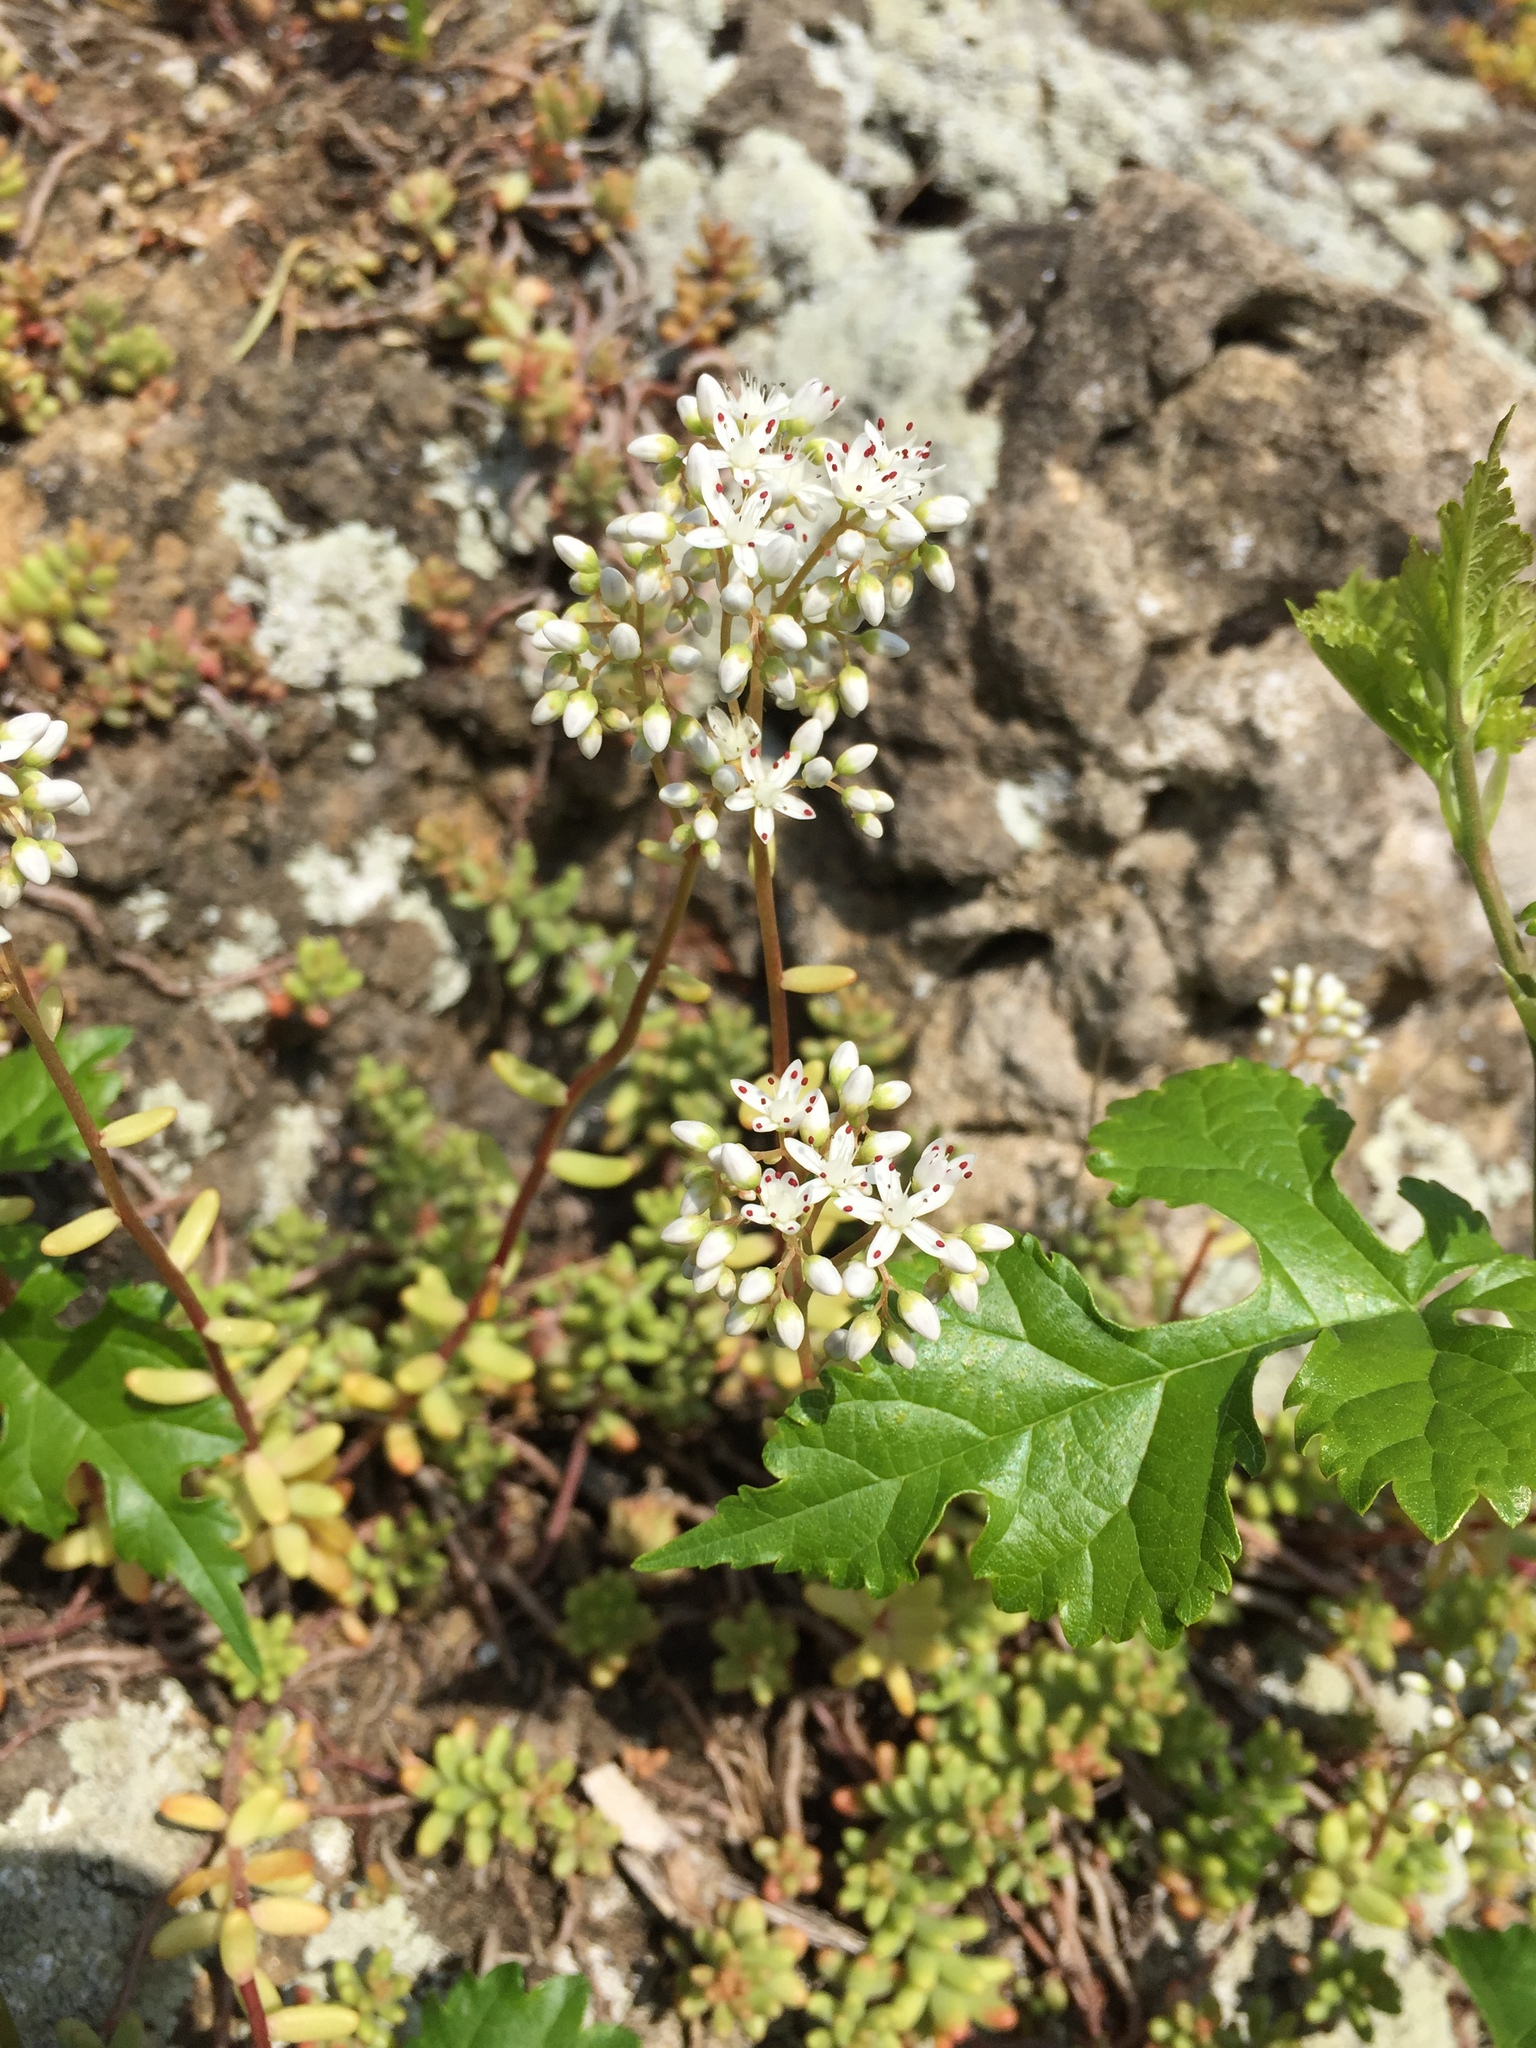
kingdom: Plantae
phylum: Tracheophyta
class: Magnoliopsida
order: Saxifragales
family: Crassulaceae
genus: Sedum
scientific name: Sedum album
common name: White stonecrop
